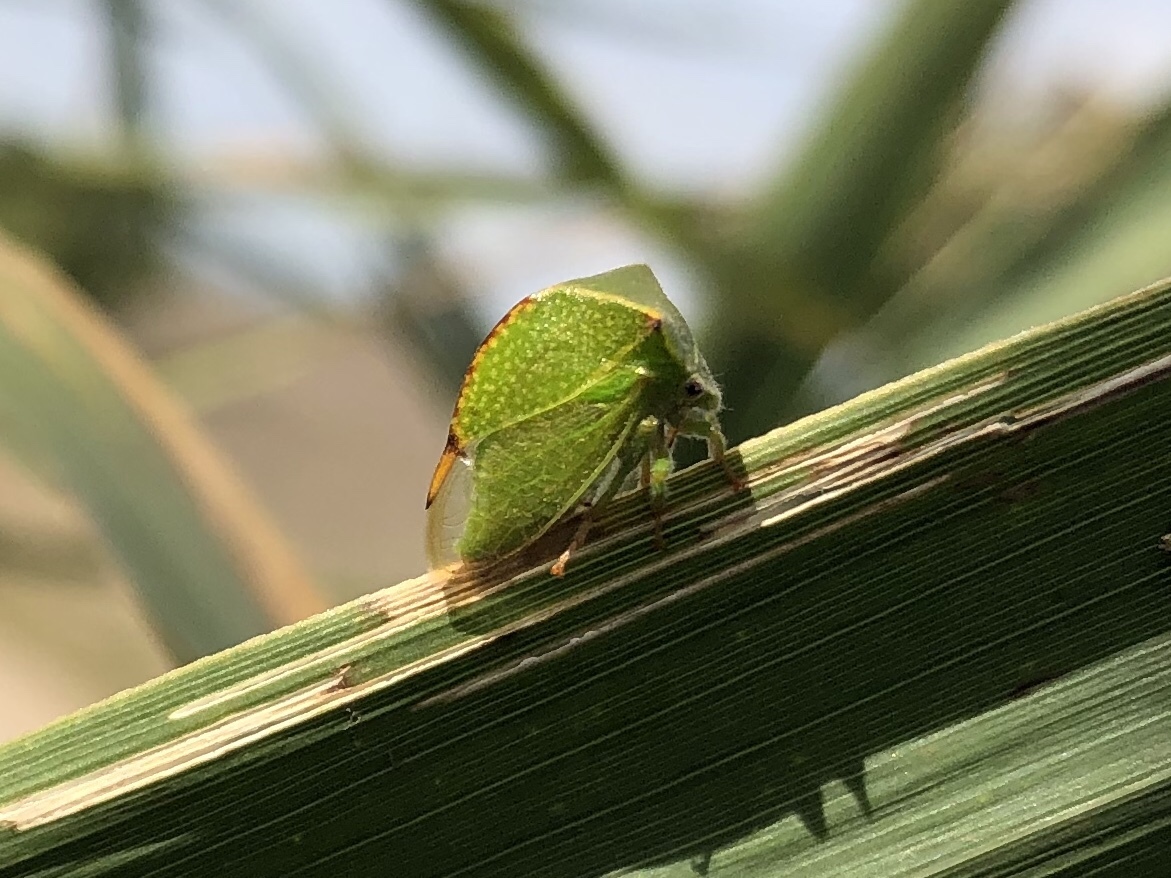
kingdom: Animalia
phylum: Arthropoda
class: Insecta
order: Hemiptera
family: Membracidae
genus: Stictocephala
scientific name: Stictocephala bisonia
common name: American buffalo treehopper
